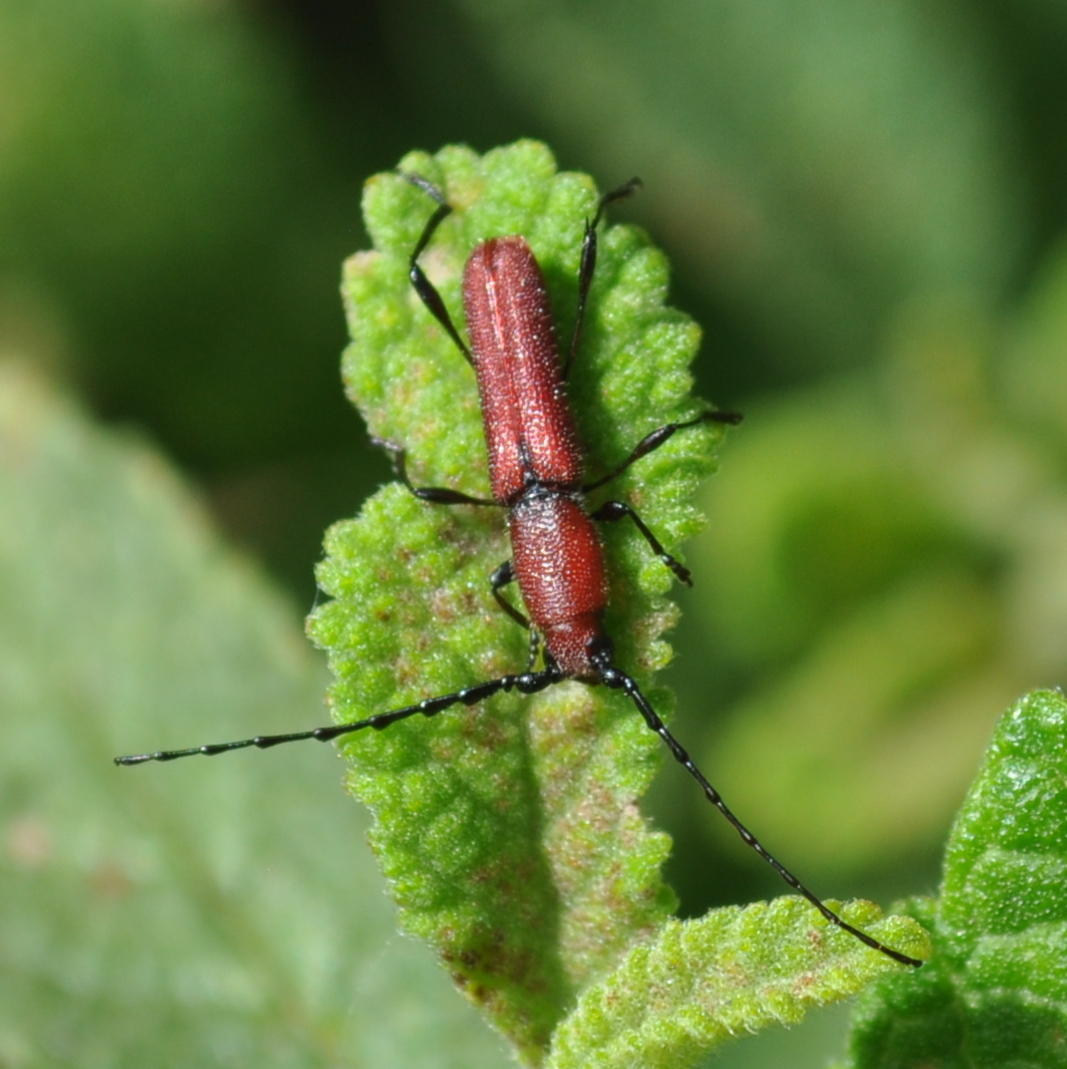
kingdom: Animalia
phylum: Arthropoda
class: Insecta
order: Coleoptera
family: Cerambycidae
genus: Ancylocera
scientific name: Ancylocera cardinalis
